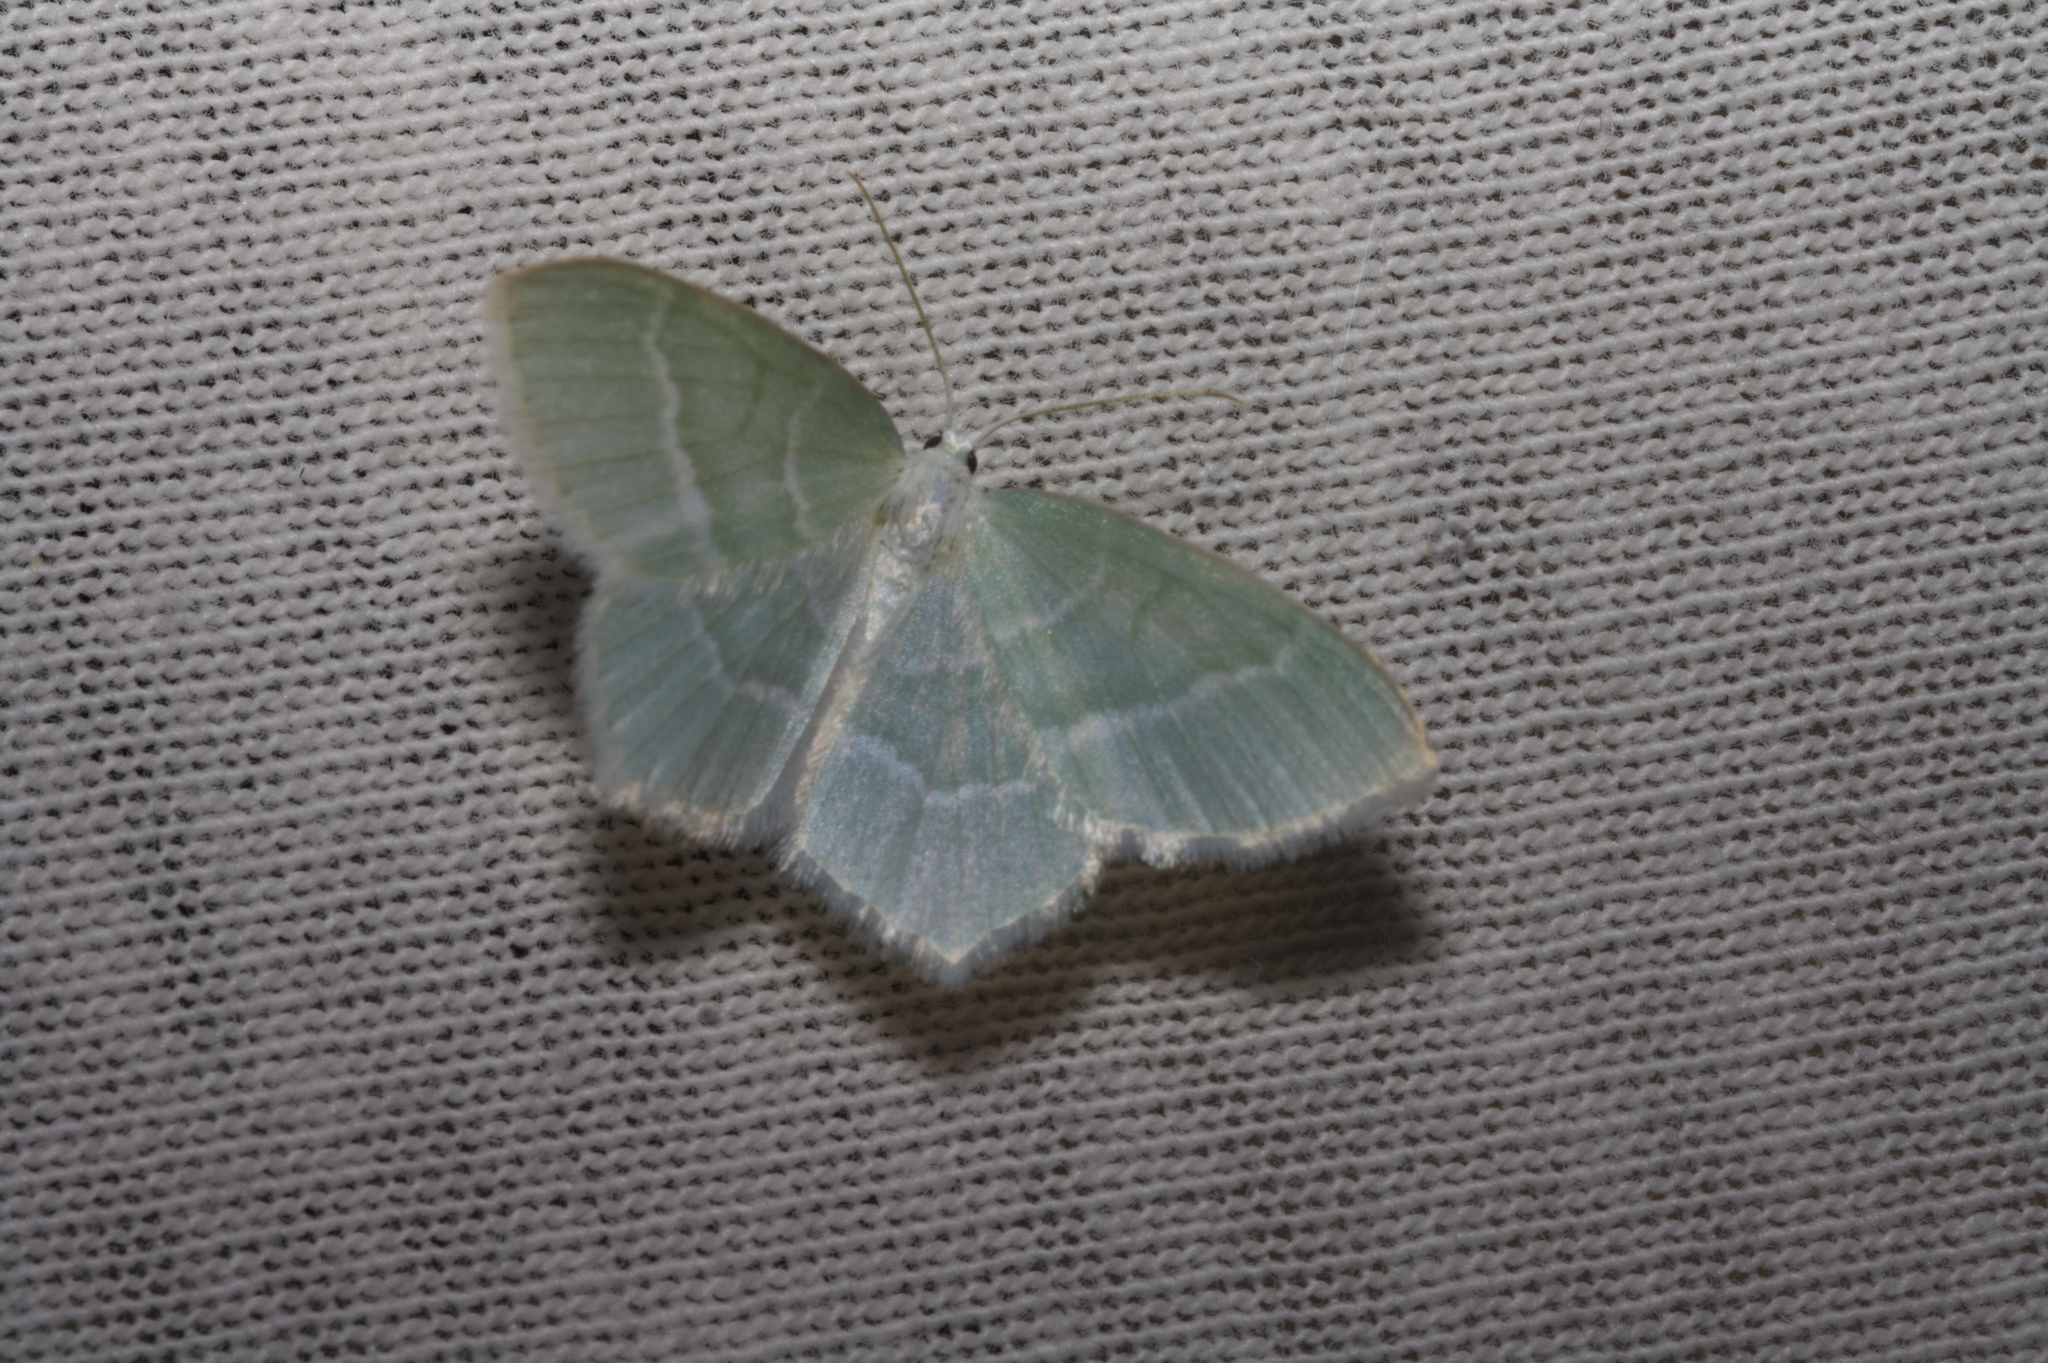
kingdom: Animalia
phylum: Arthropoda
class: Insecta
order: Lepidoptera
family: Geometridae
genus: Jodis
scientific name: Jodis lactearia
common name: Little emerald
